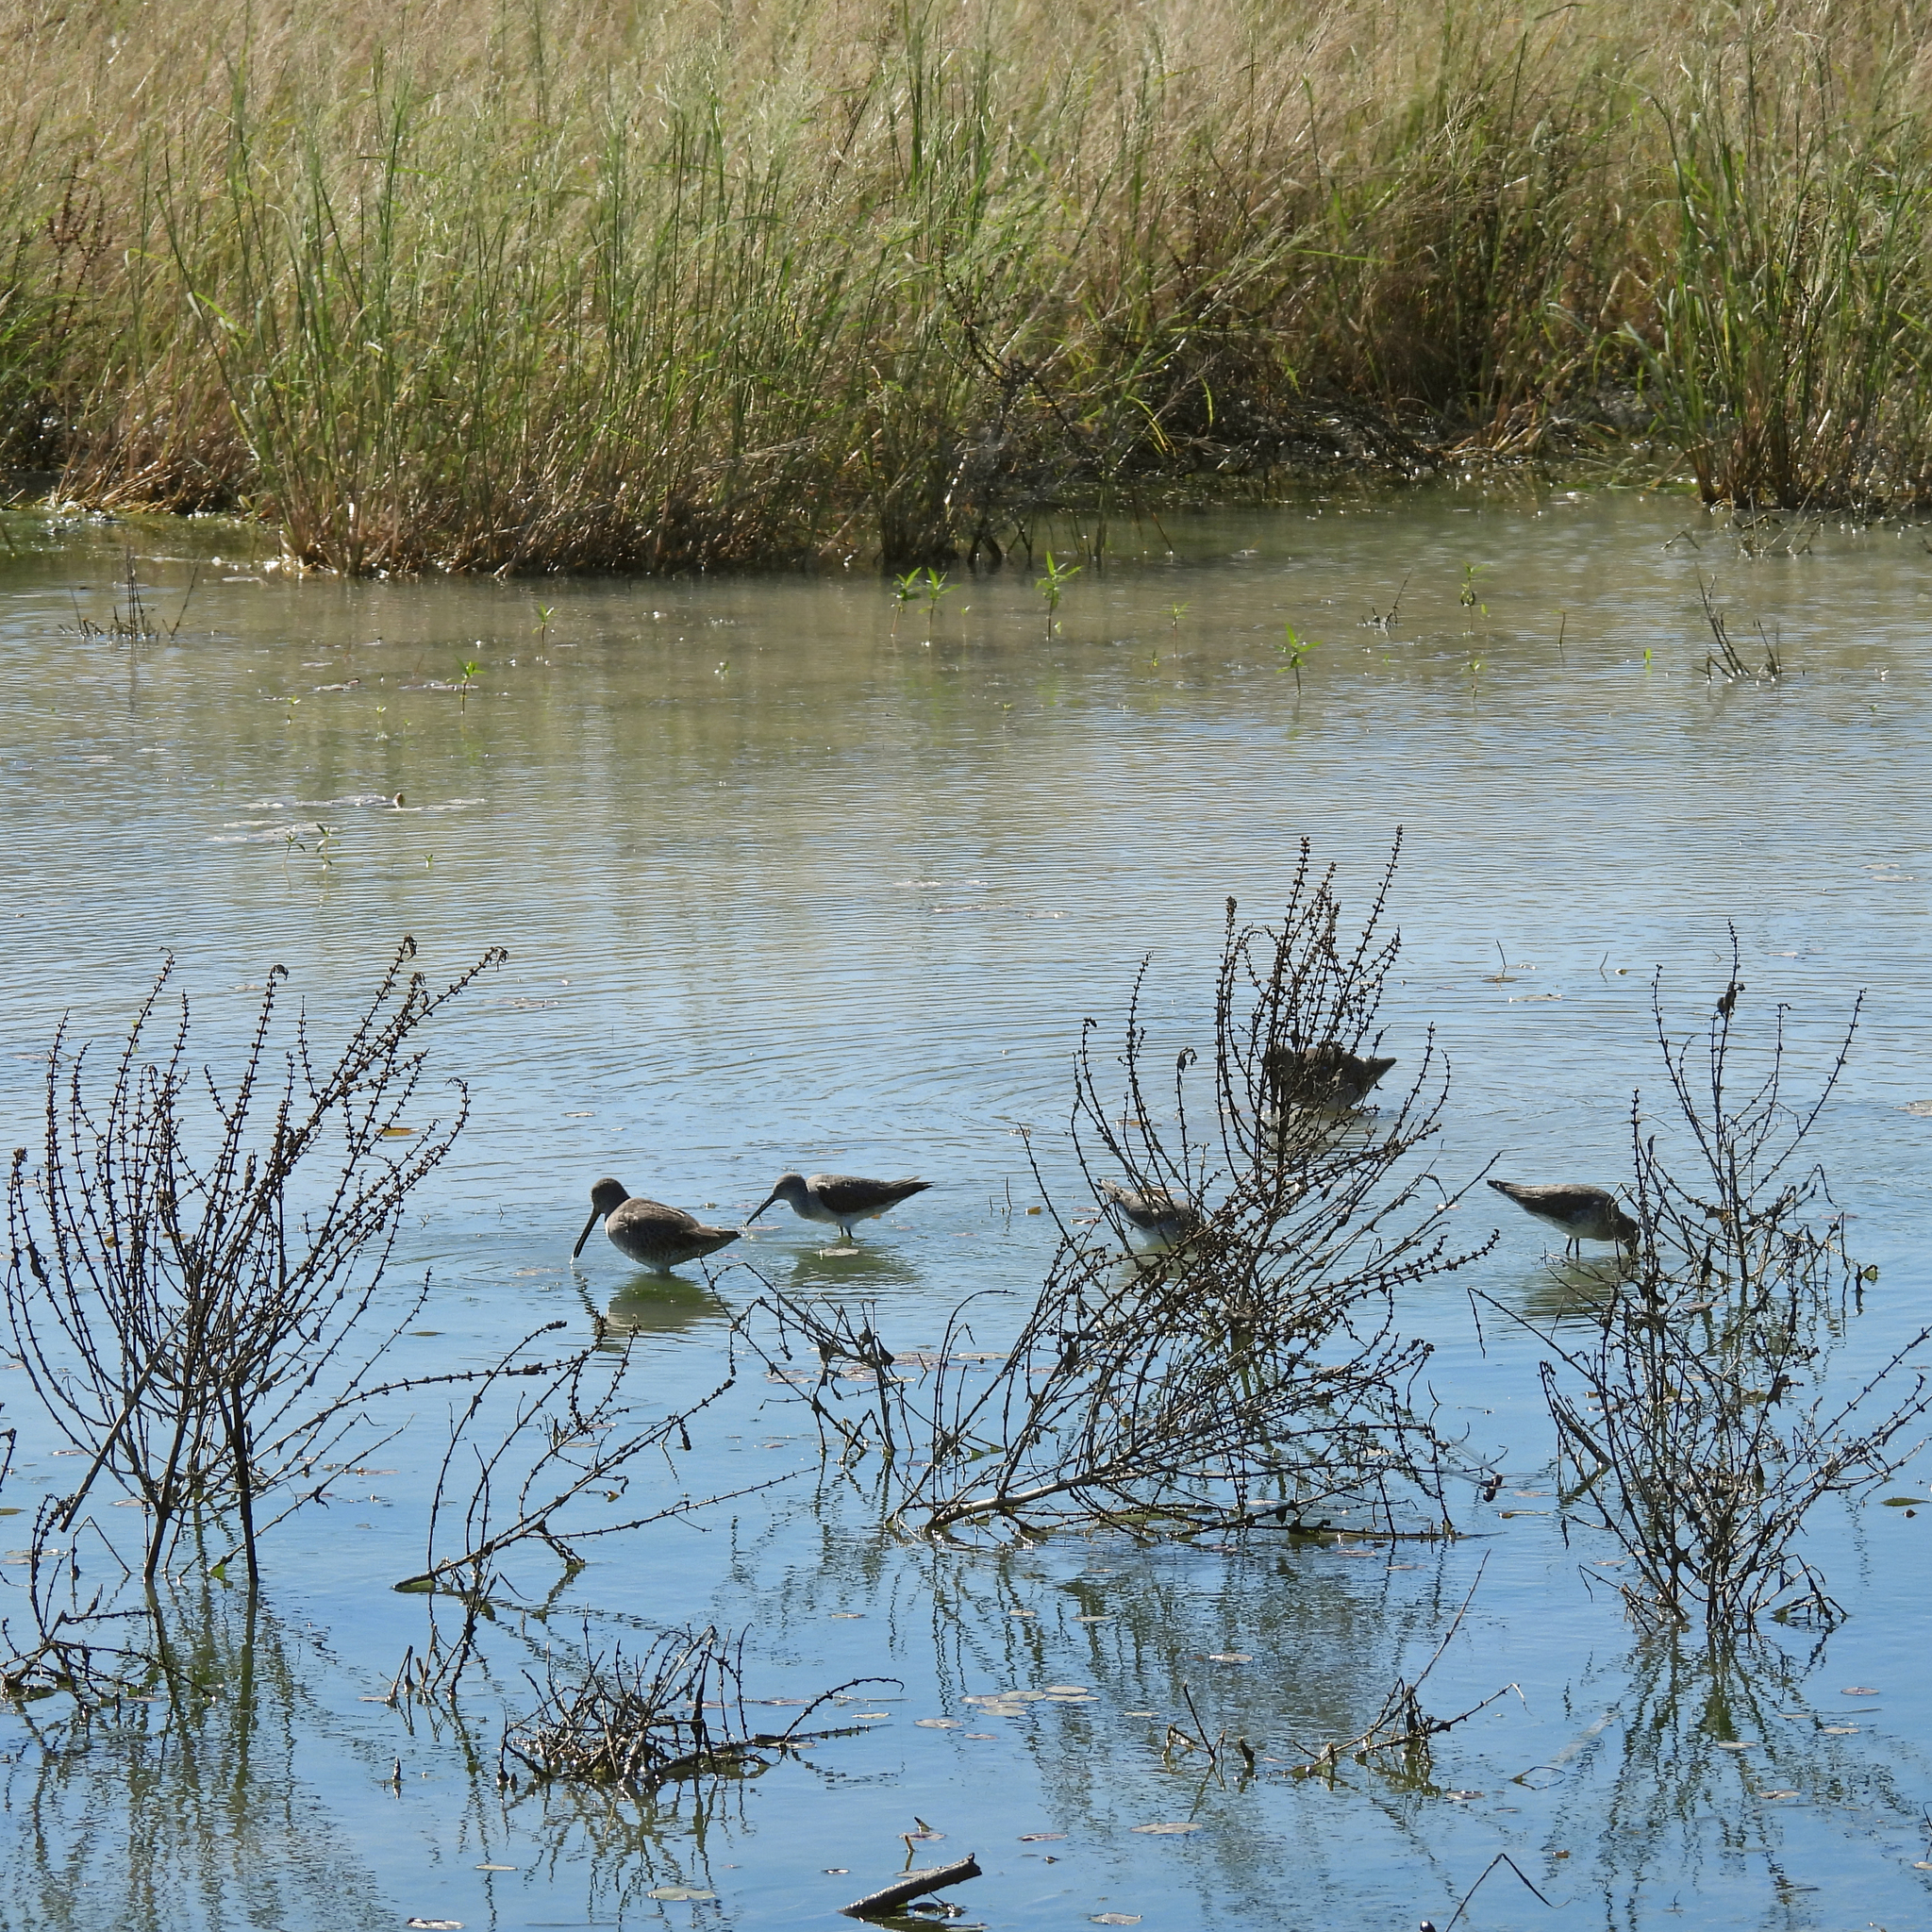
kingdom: Animalia
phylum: Chordata
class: Aves
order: Charadriiformes
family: Scolopacidae
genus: Limnodromus
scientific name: Limnodromus
